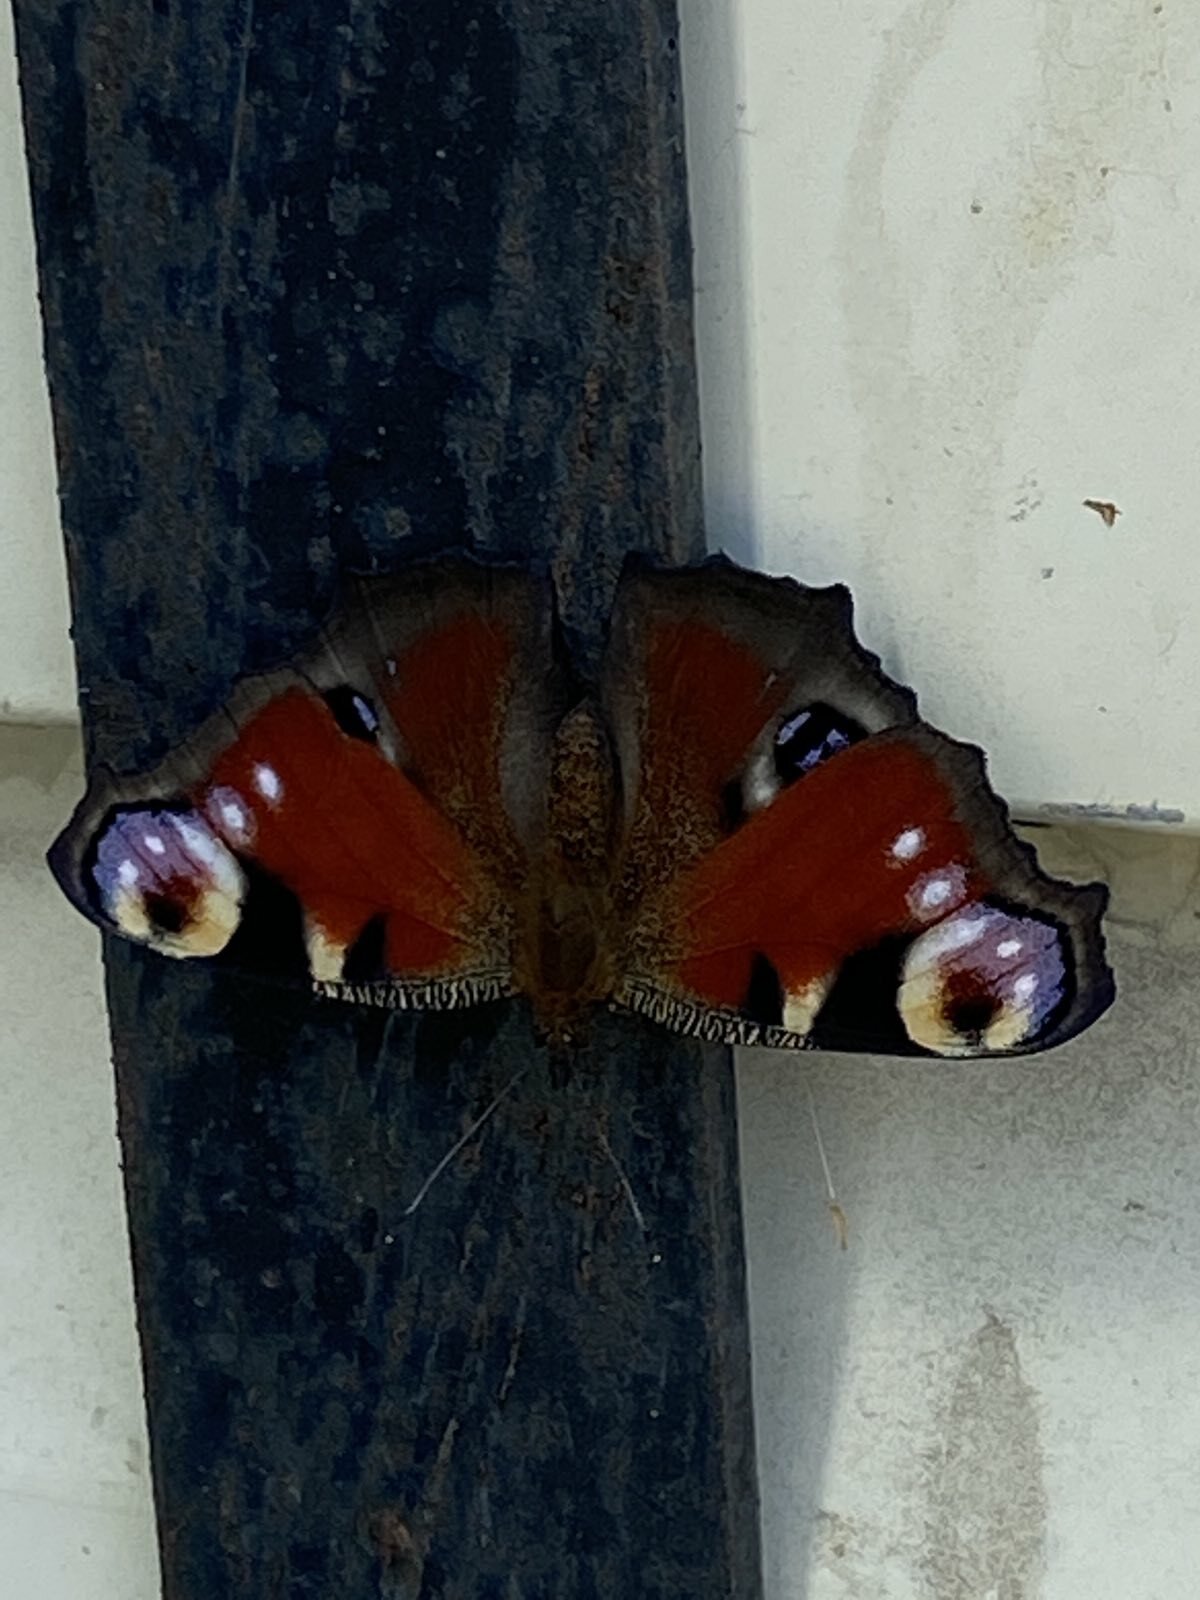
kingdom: Animalia
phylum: Arthropoda
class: Insecta
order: Lepidoptera
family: Nymphalidae
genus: Aglais
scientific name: Aglais io
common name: Peacock
